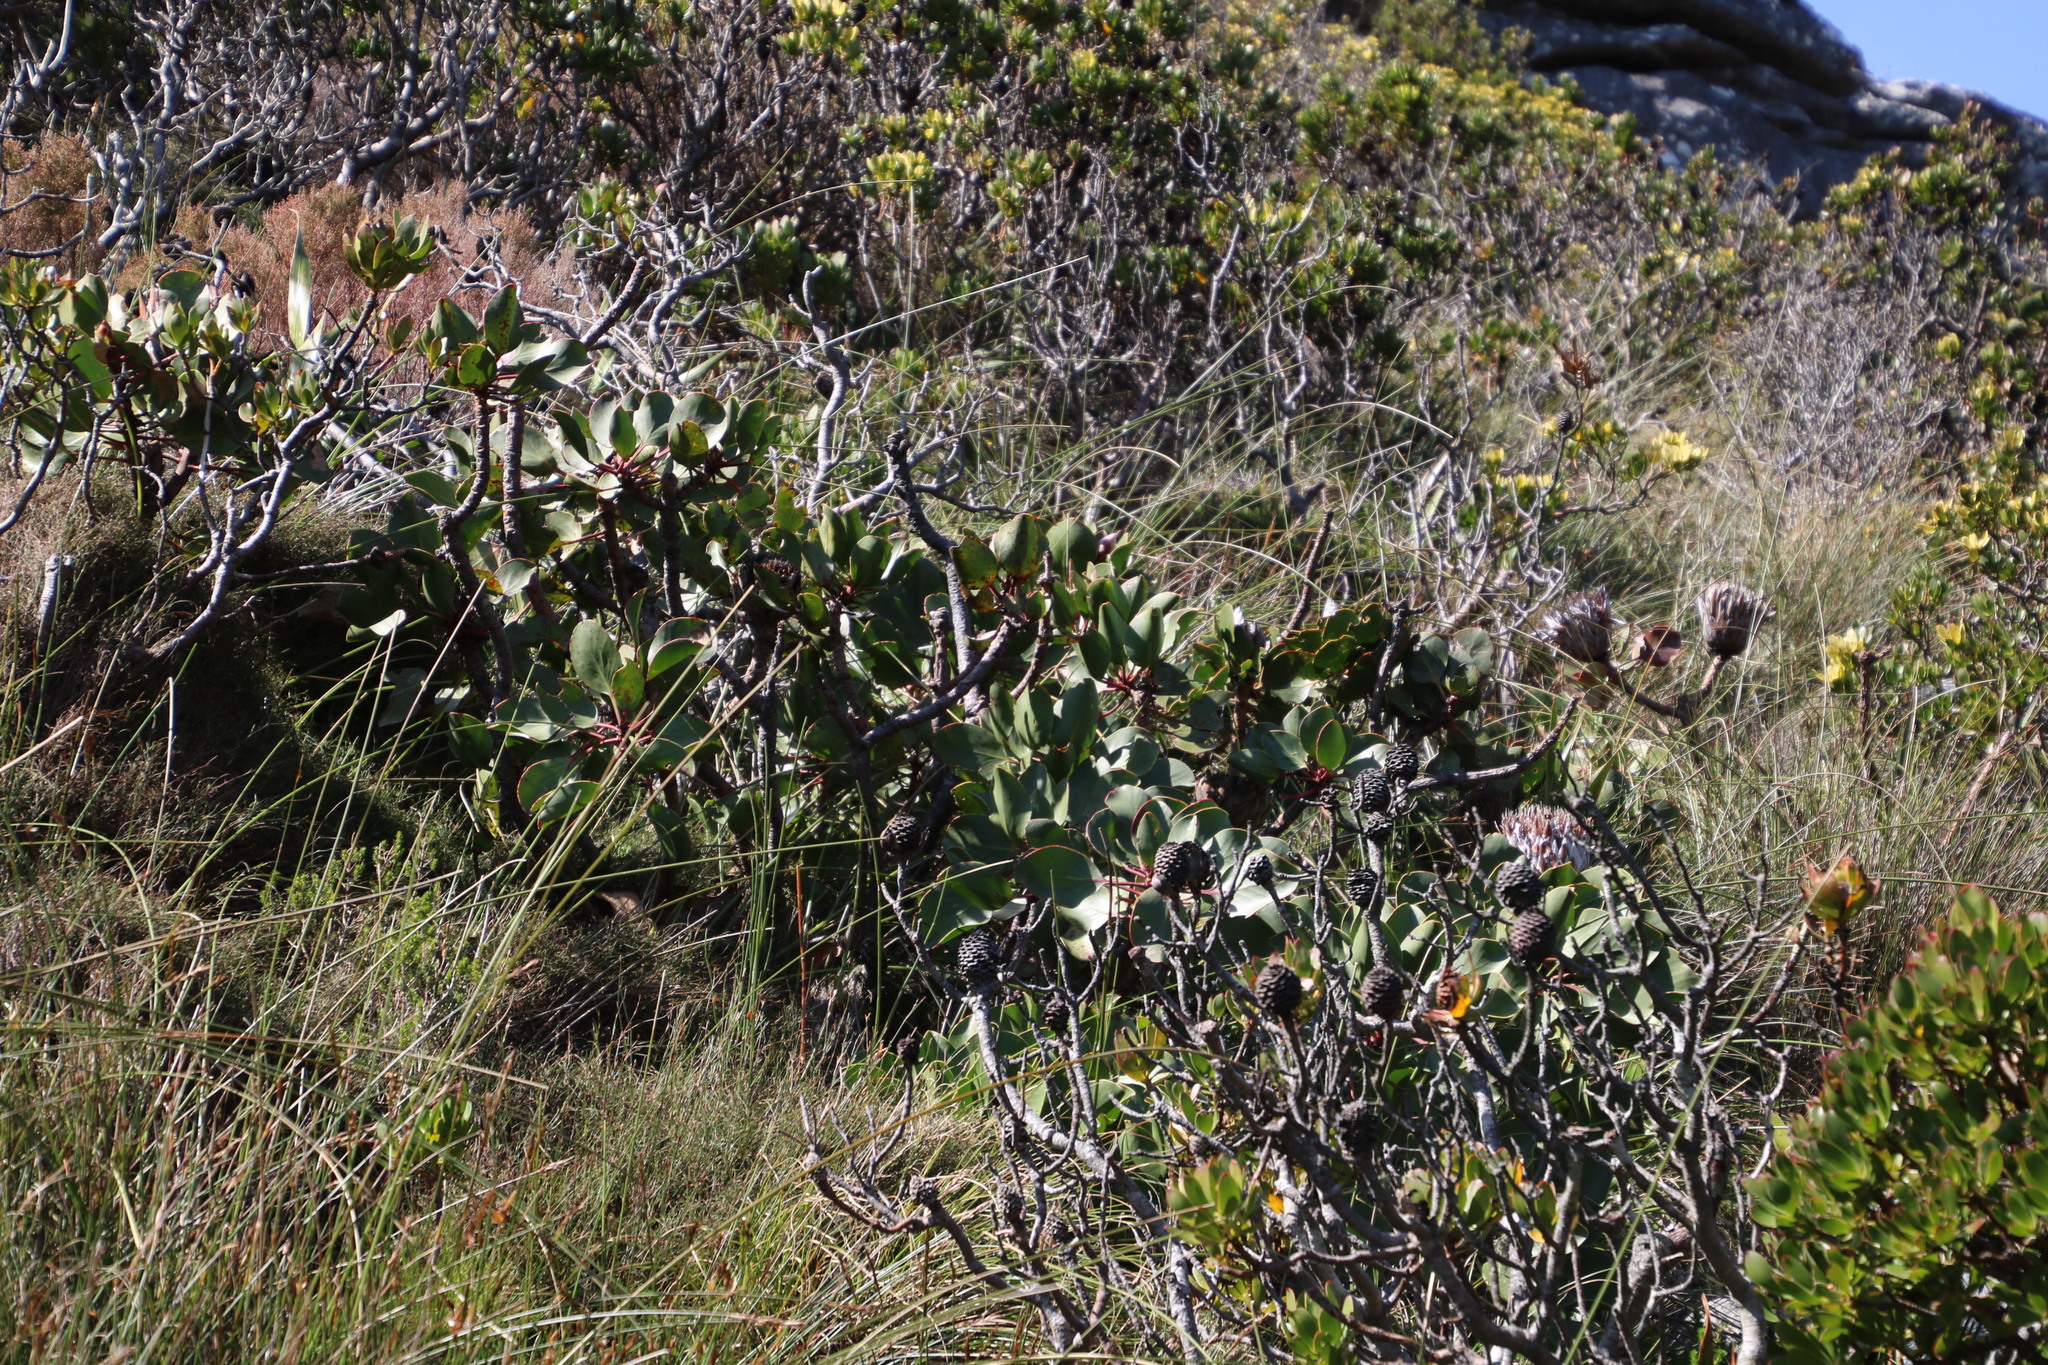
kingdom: Plantae
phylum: Tracheophyta
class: Magnoliopsida
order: Proteales
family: Proteaceae
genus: Protea
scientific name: Protea cynaroides
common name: King protea
